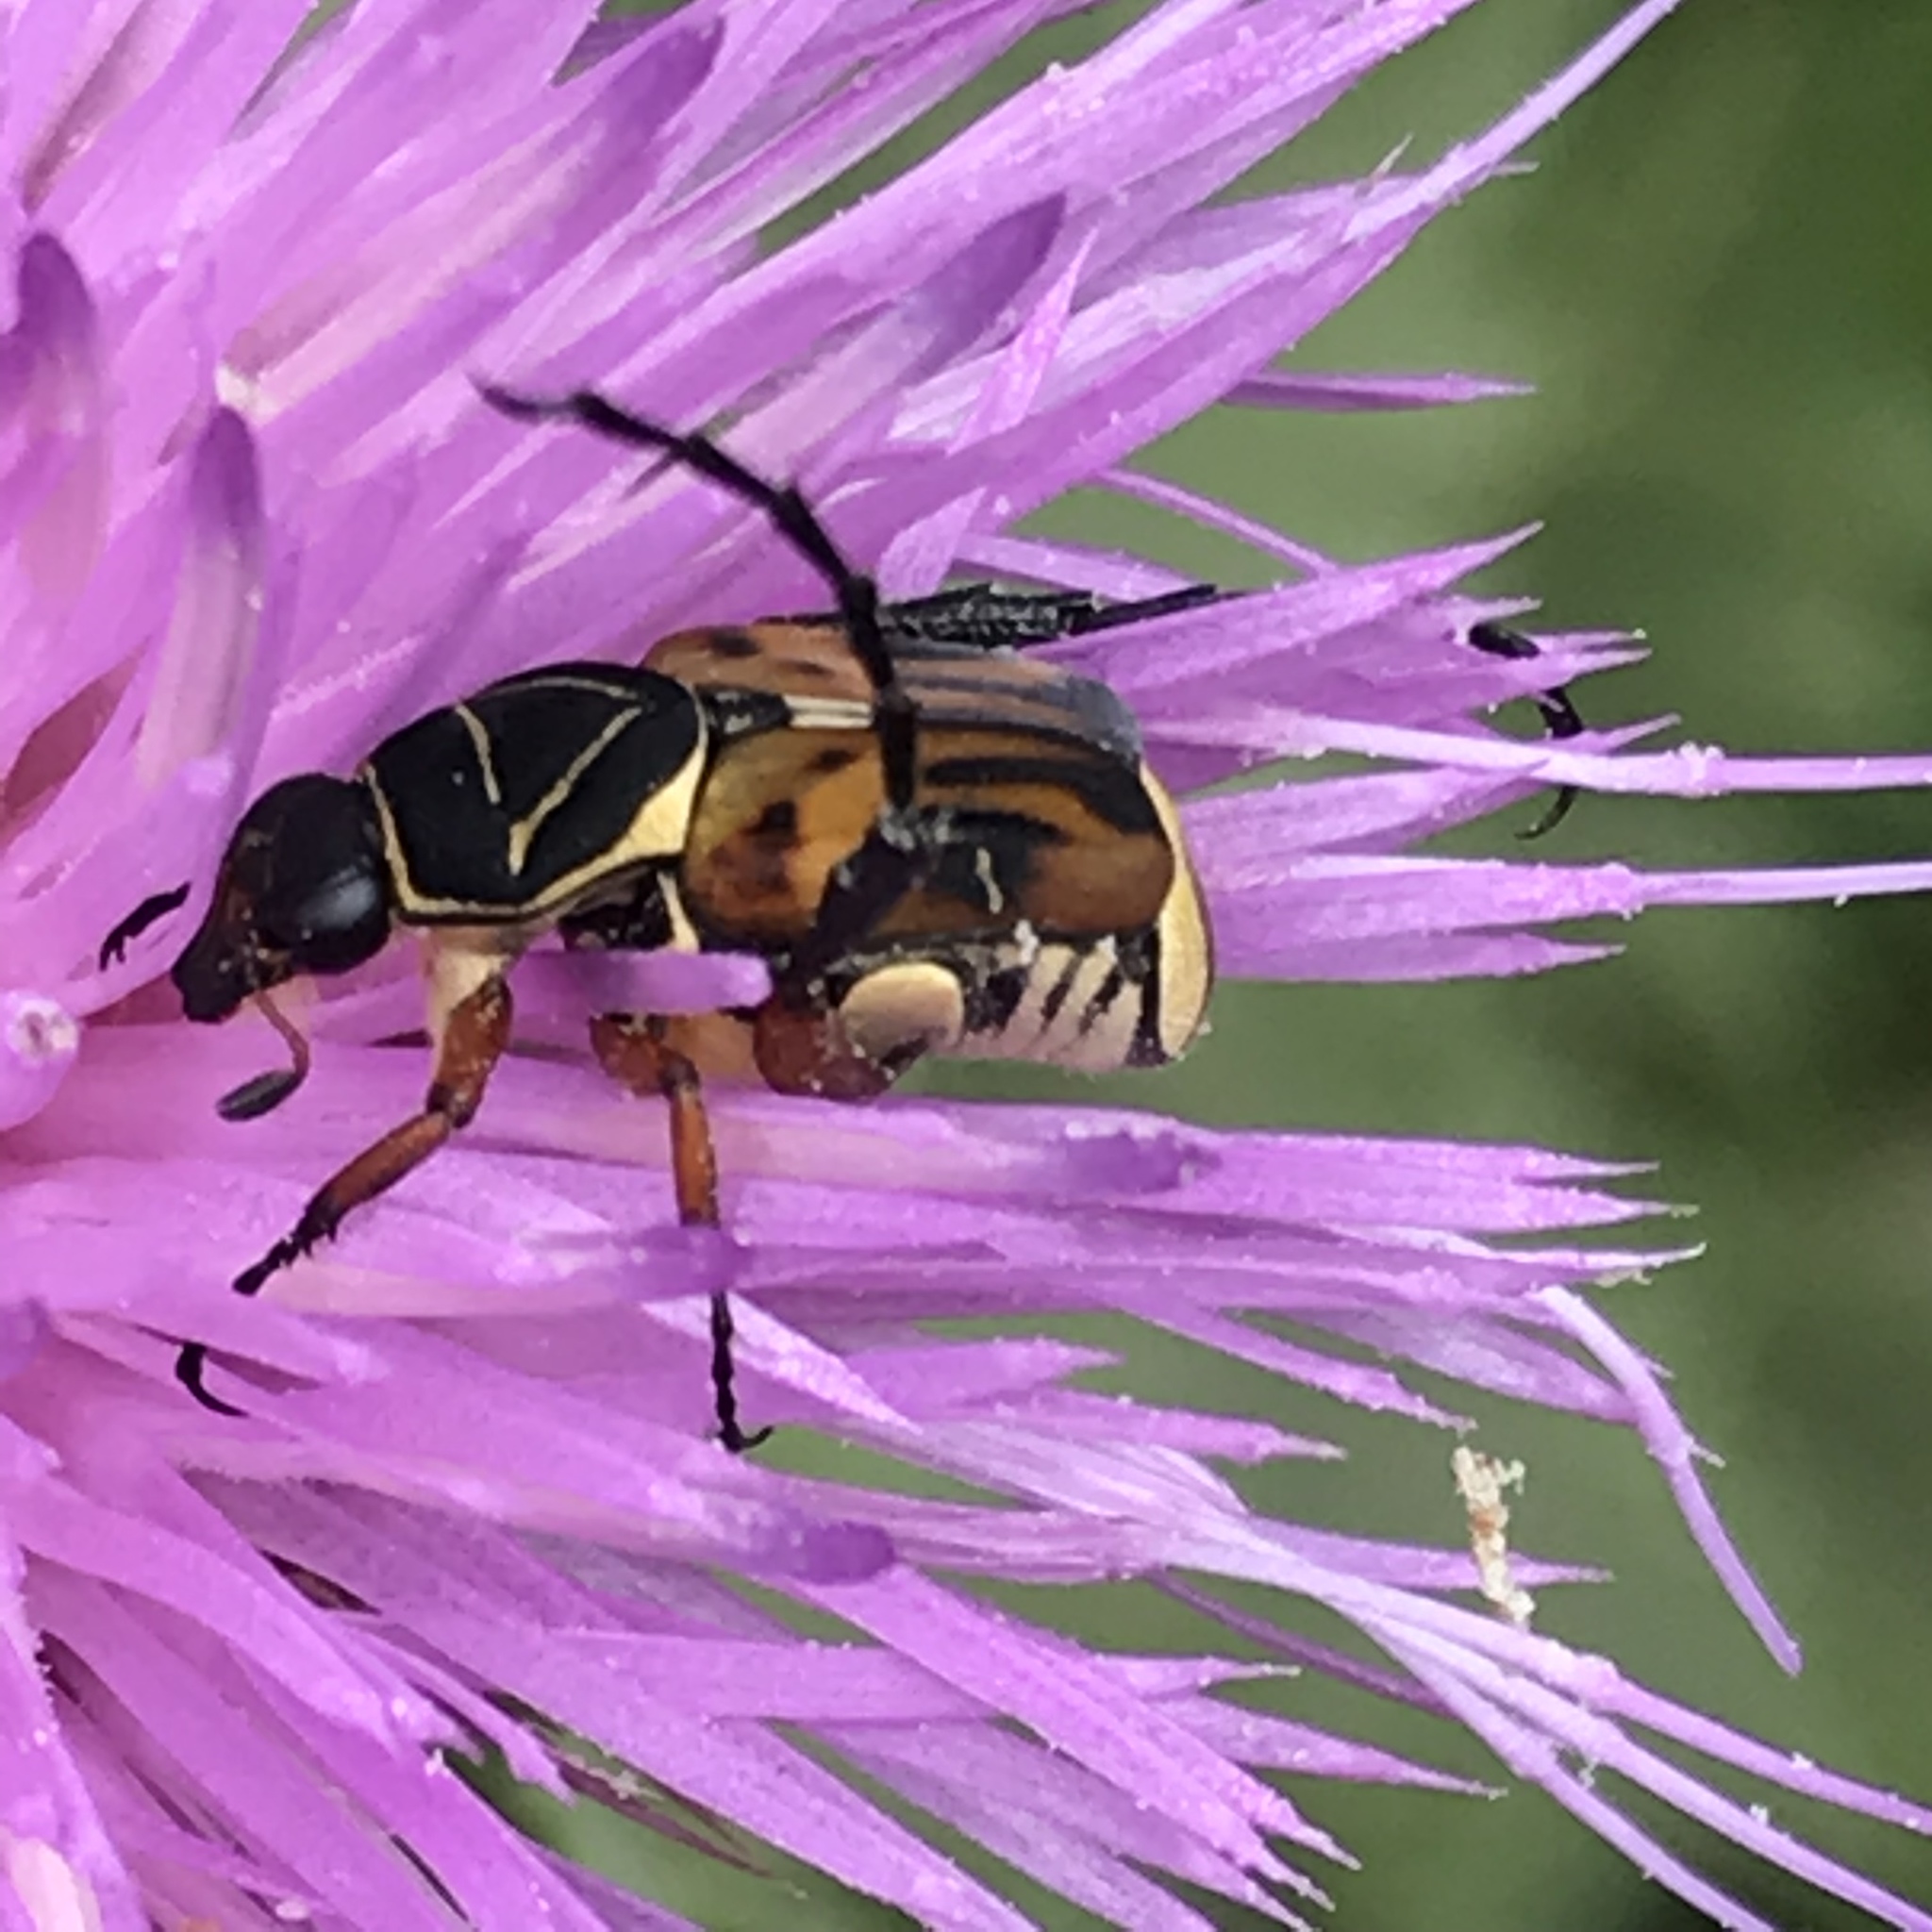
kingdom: Animalia
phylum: Arthropoda
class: Insecta
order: Coleoptera
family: Scarabaeidae
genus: Trigonopeltastes
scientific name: Trigonopeltastes frontalis
